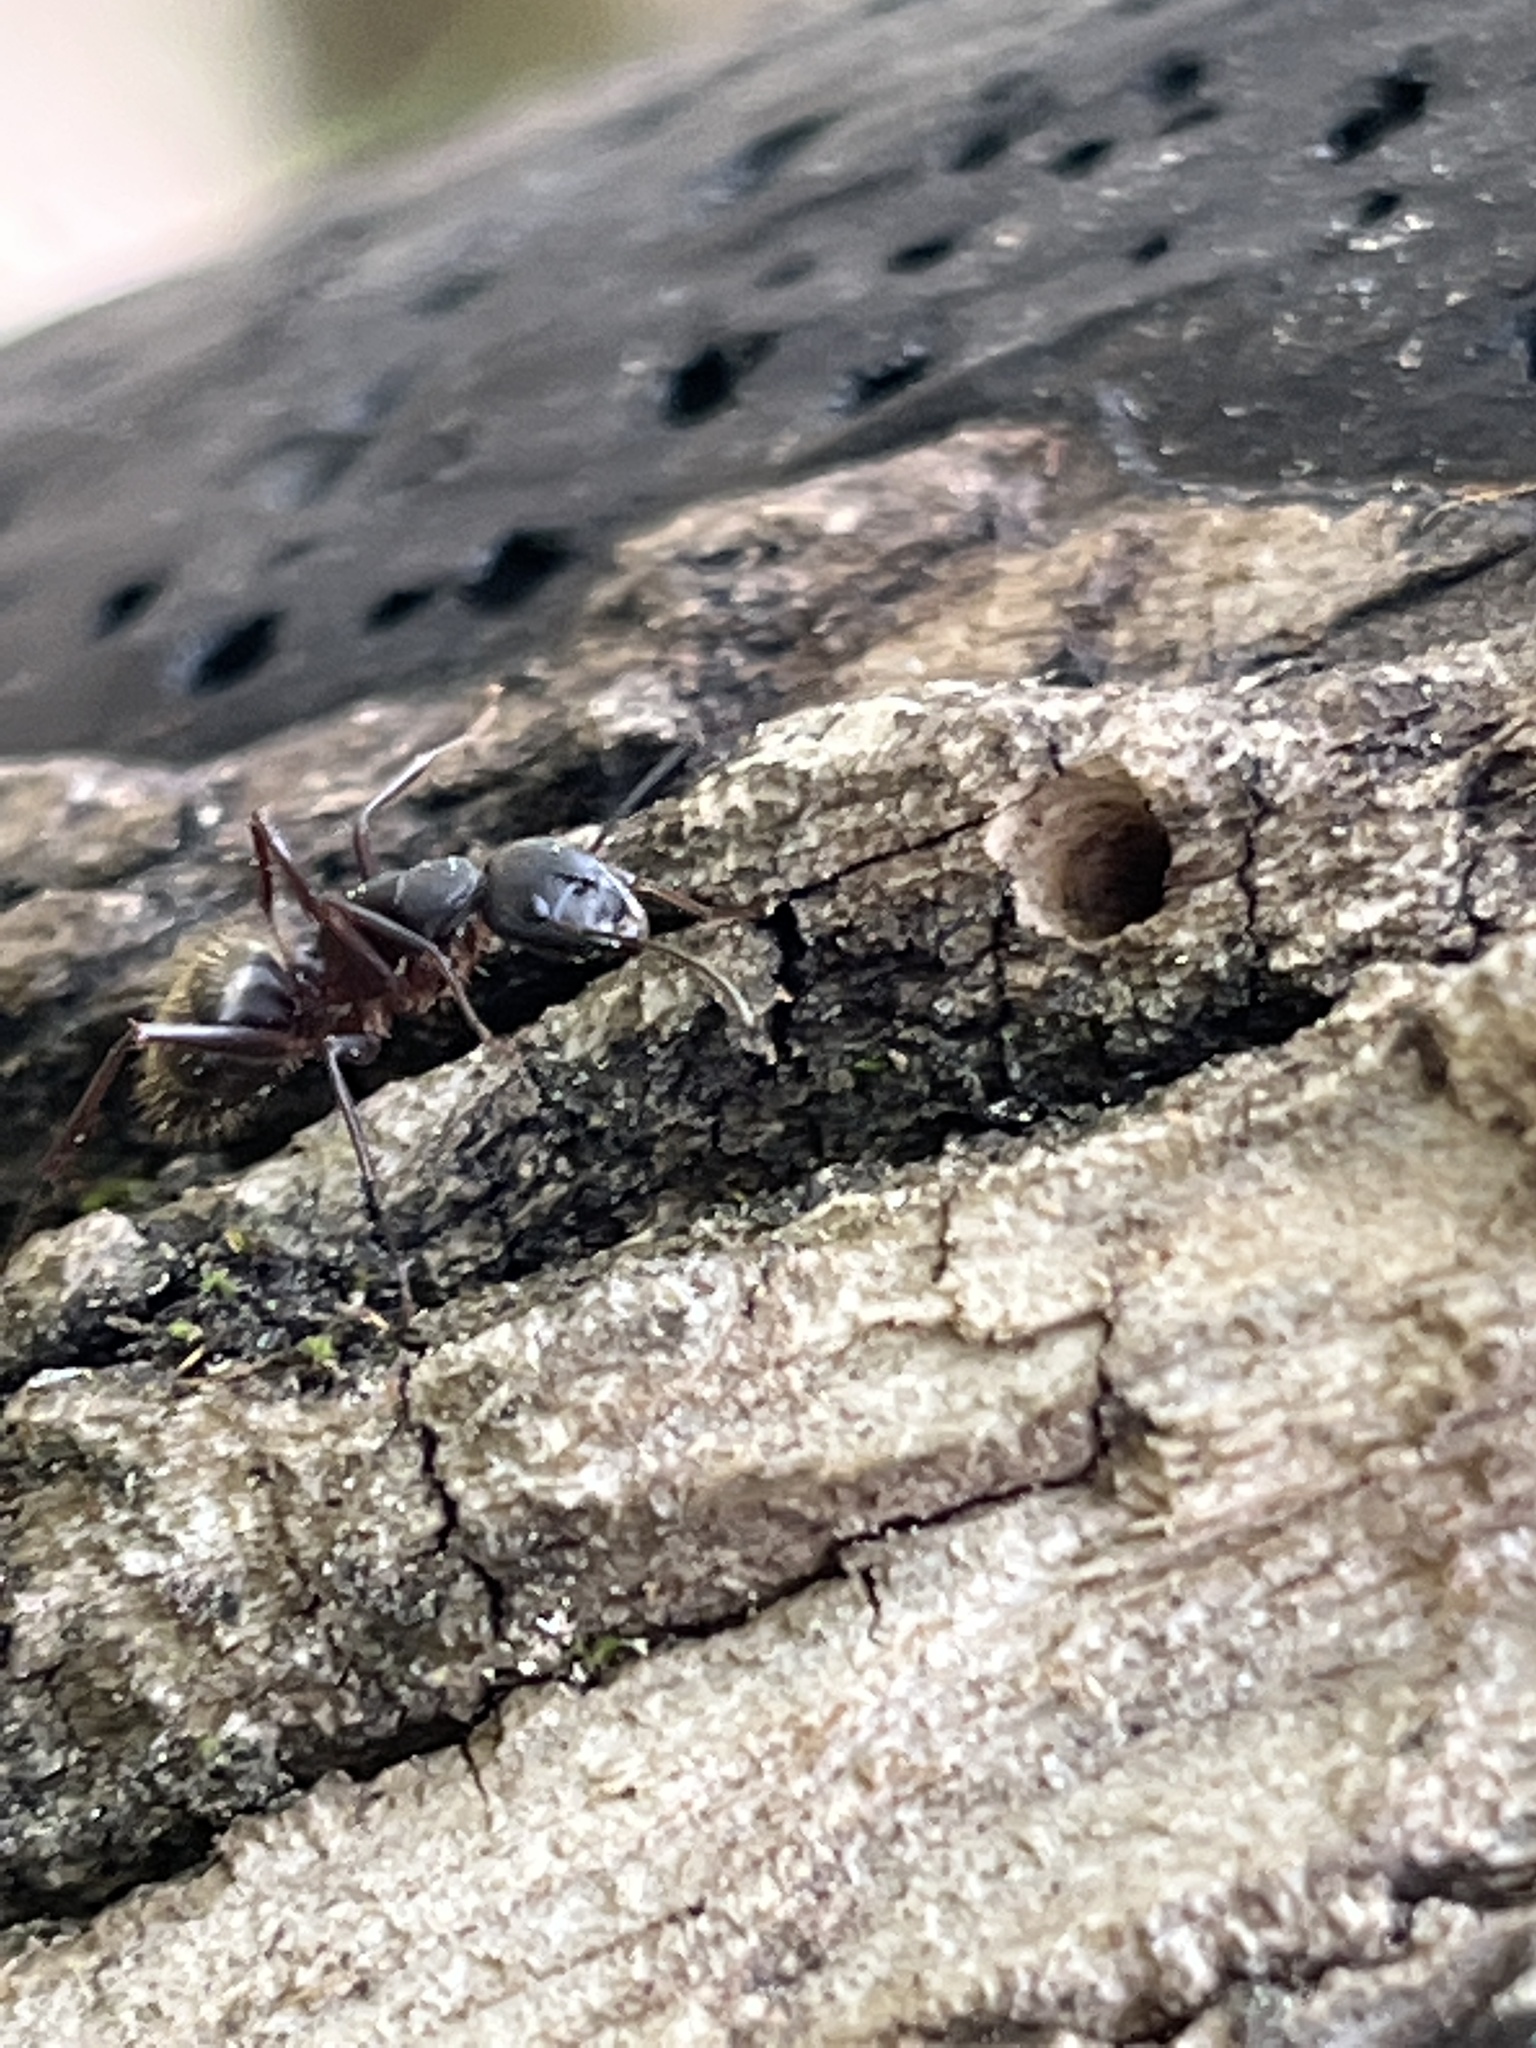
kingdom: Animalia
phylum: Arthropoda
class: Insecta
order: Hymenoptera
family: Formicidae
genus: Camponotus
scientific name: Camponotus chromaiodes
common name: Red carpenter ant
